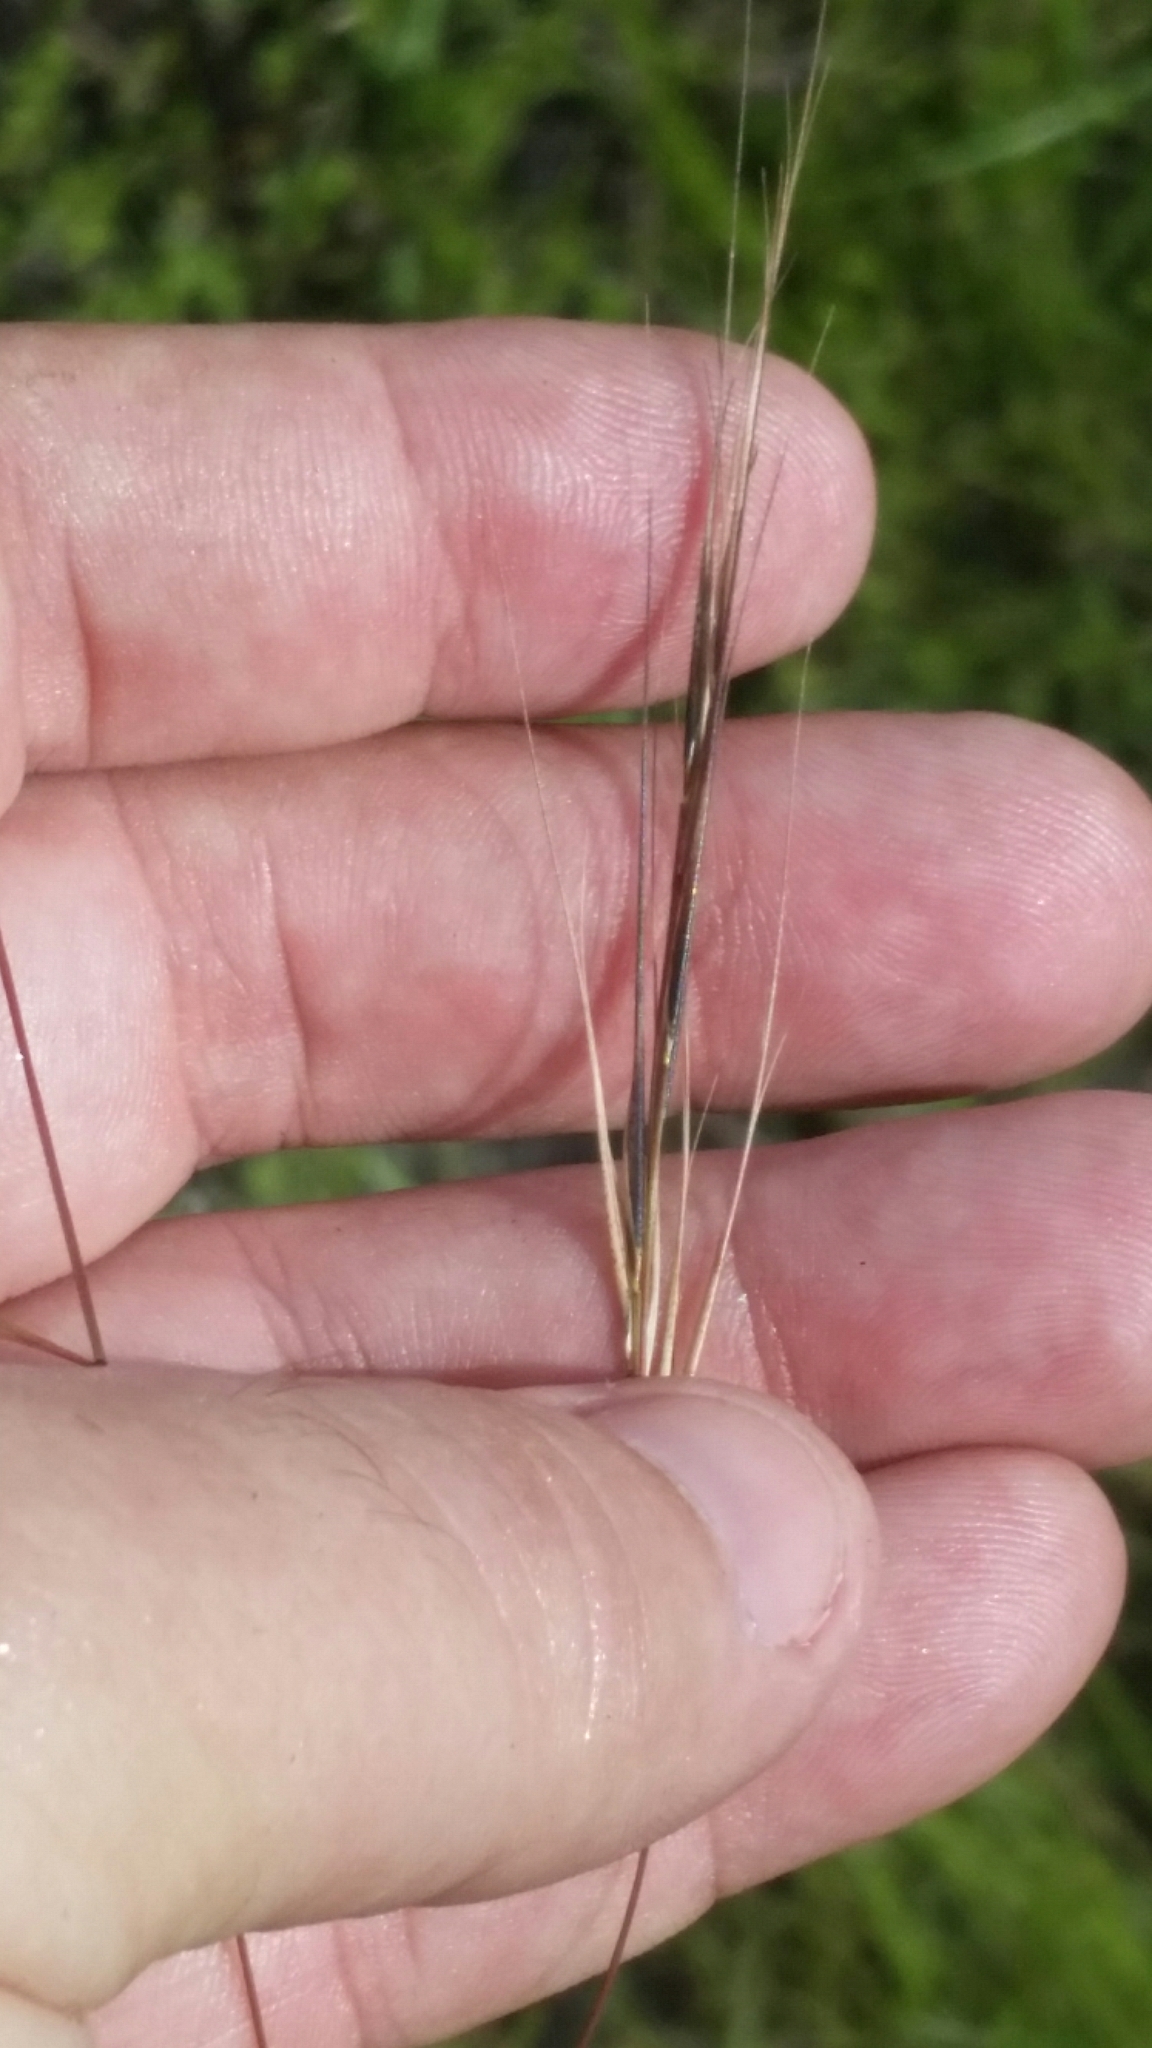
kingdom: Plantae
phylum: Tracheophyta
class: Liliopsida
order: Poales
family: Poaceae
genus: Aristida
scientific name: Aristida patula
